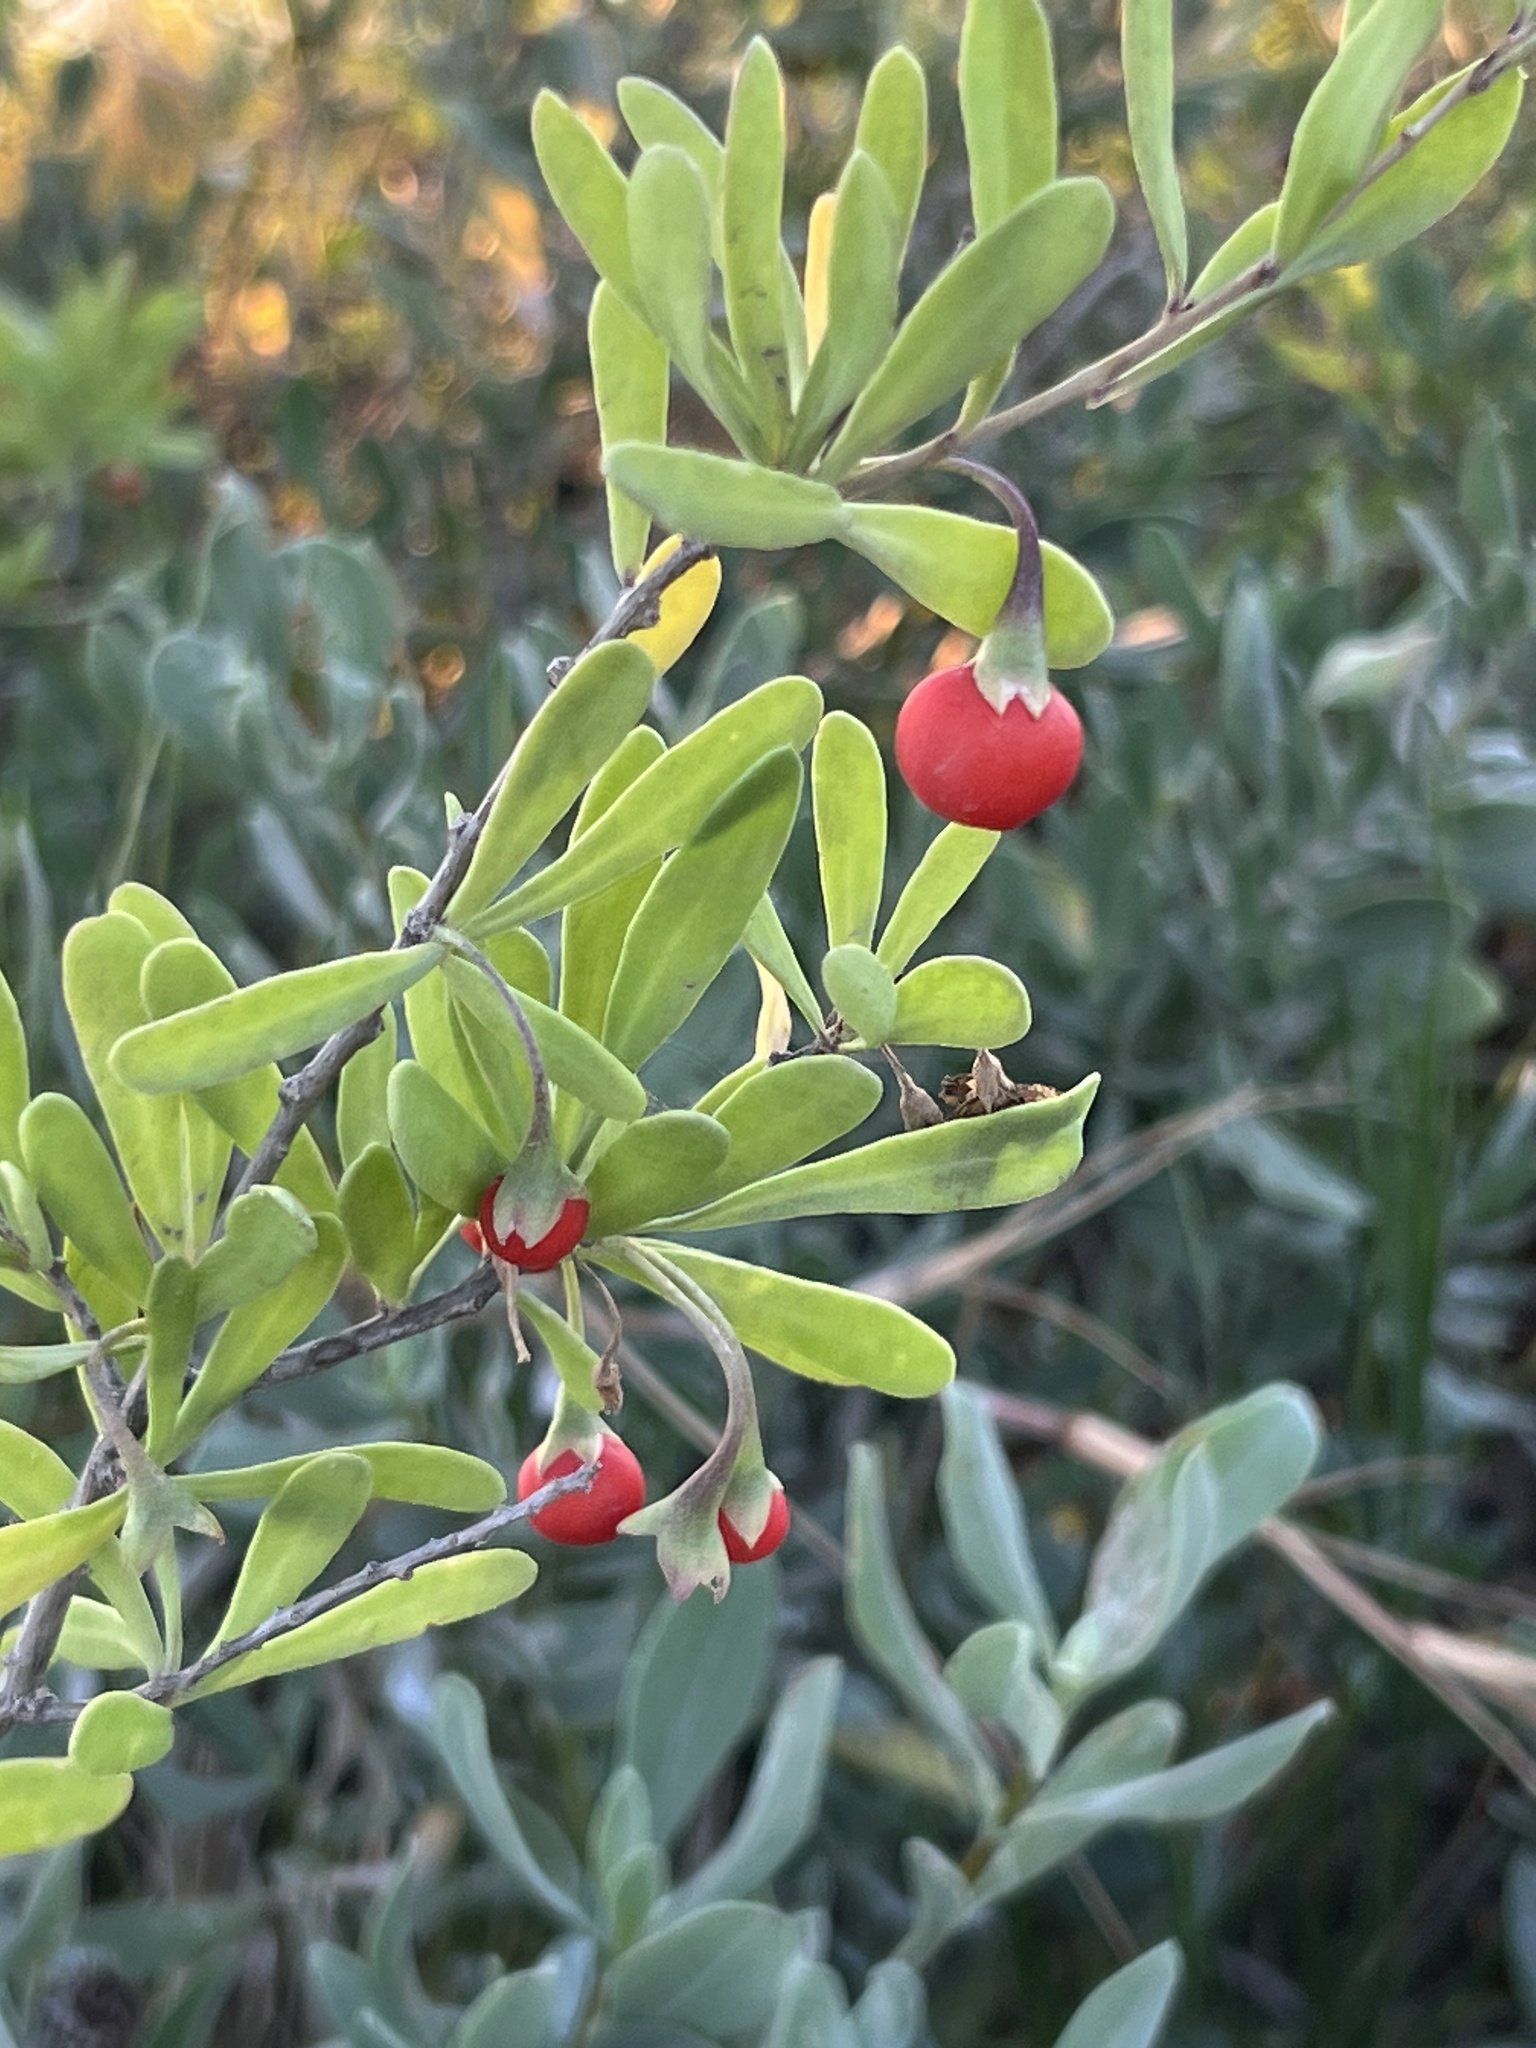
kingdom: Plantae
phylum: Tracheophyta
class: Magnoliopsida
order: Solanales
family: Solanaceae
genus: Lycium
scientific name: Lycium carolinianum
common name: Christmasberry
